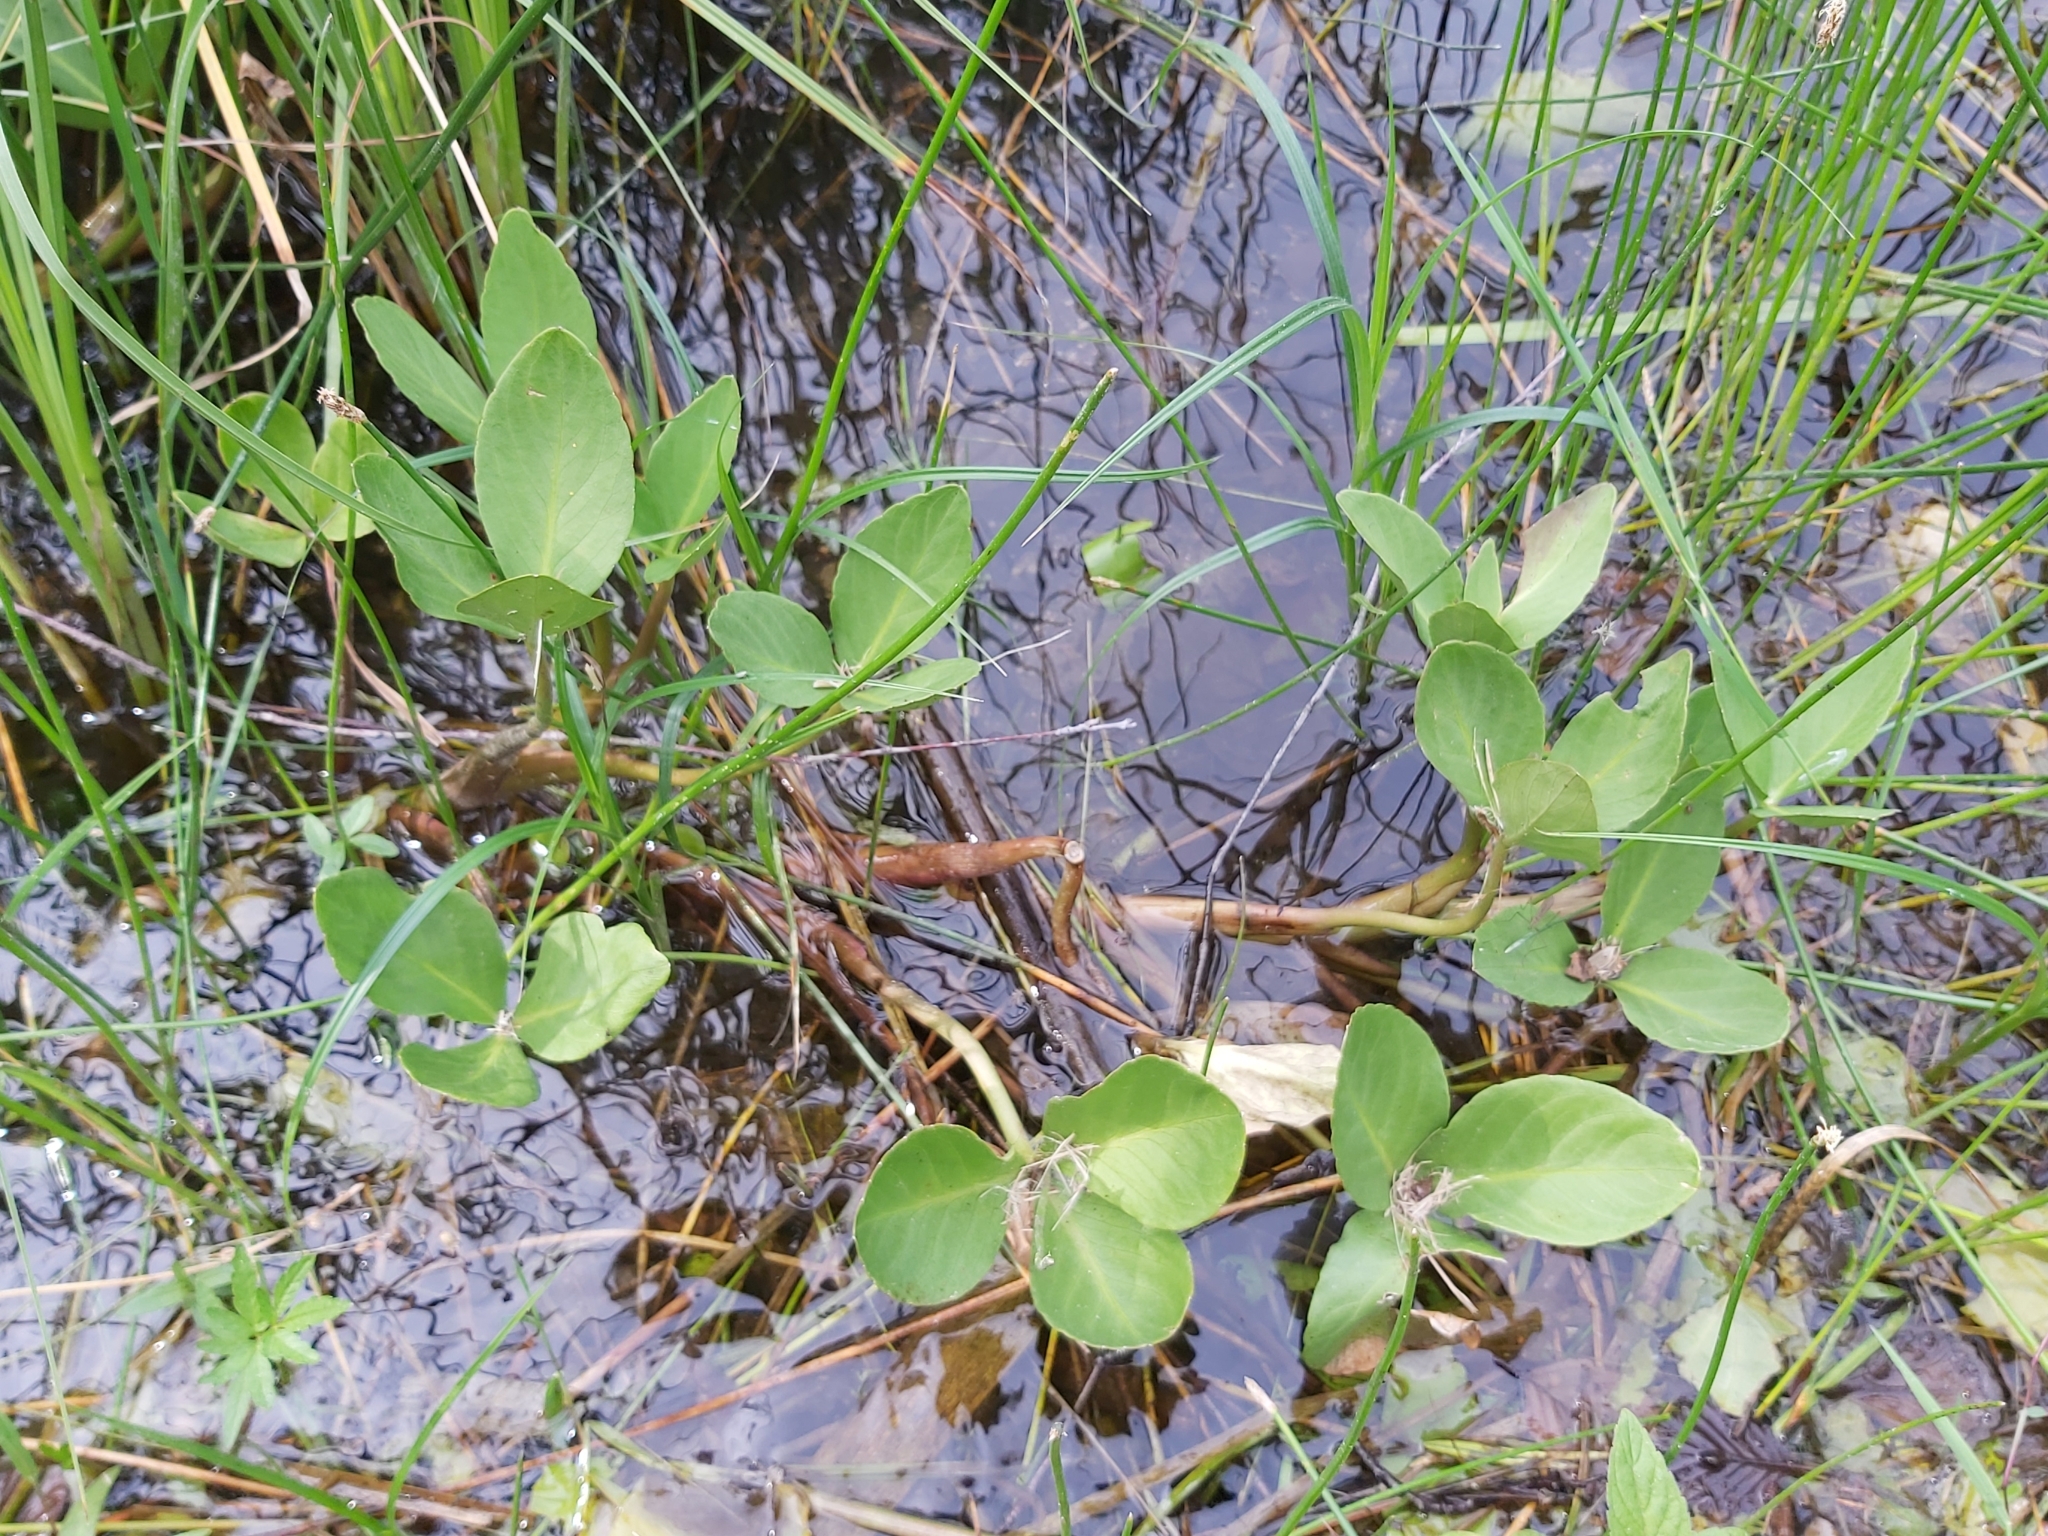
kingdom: Plantae
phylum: Tracheophyta
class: Magnoliopsida
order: Asterales
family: Menyanthaceae
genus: Menyanthes
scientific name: Menyanthes trifoliata
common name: Bogbean
